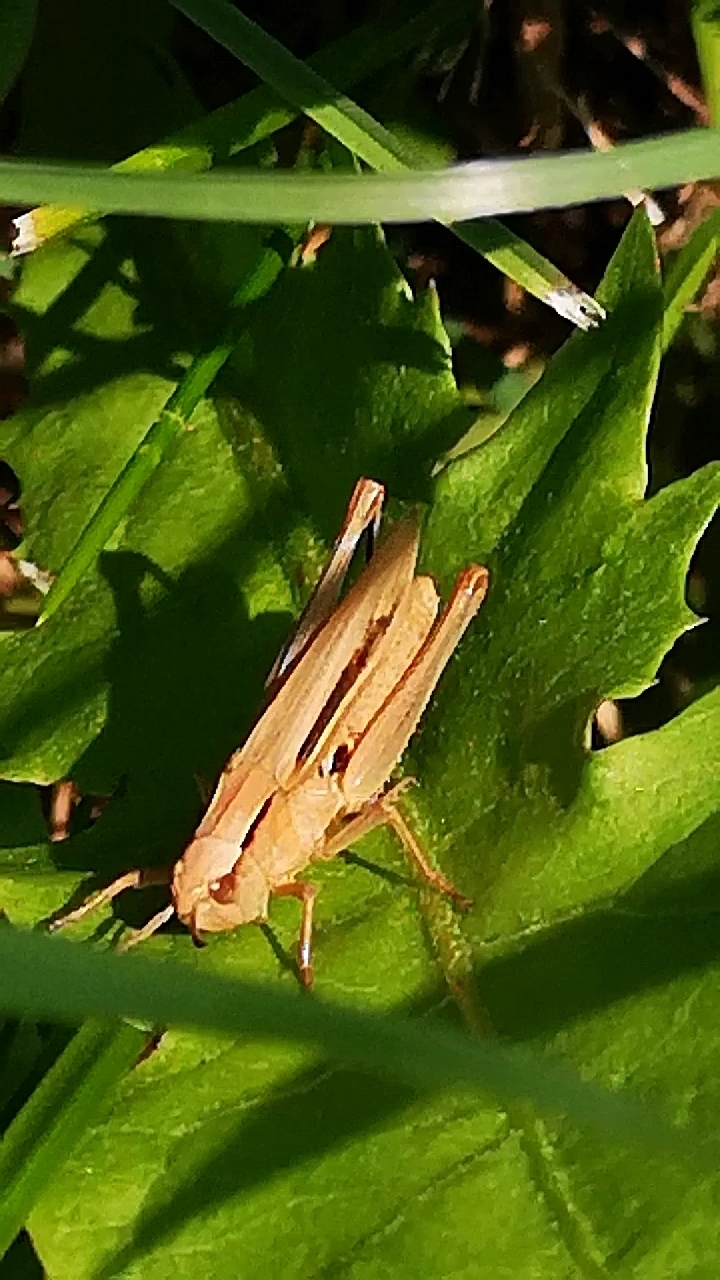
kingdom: Animalia
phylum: Arthropoda
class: Insecta
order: Orthoptera
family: Acrididae
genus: Chorthippus
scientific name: Chorthippus albomarginatus
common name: Lesser marsh grasshopper
